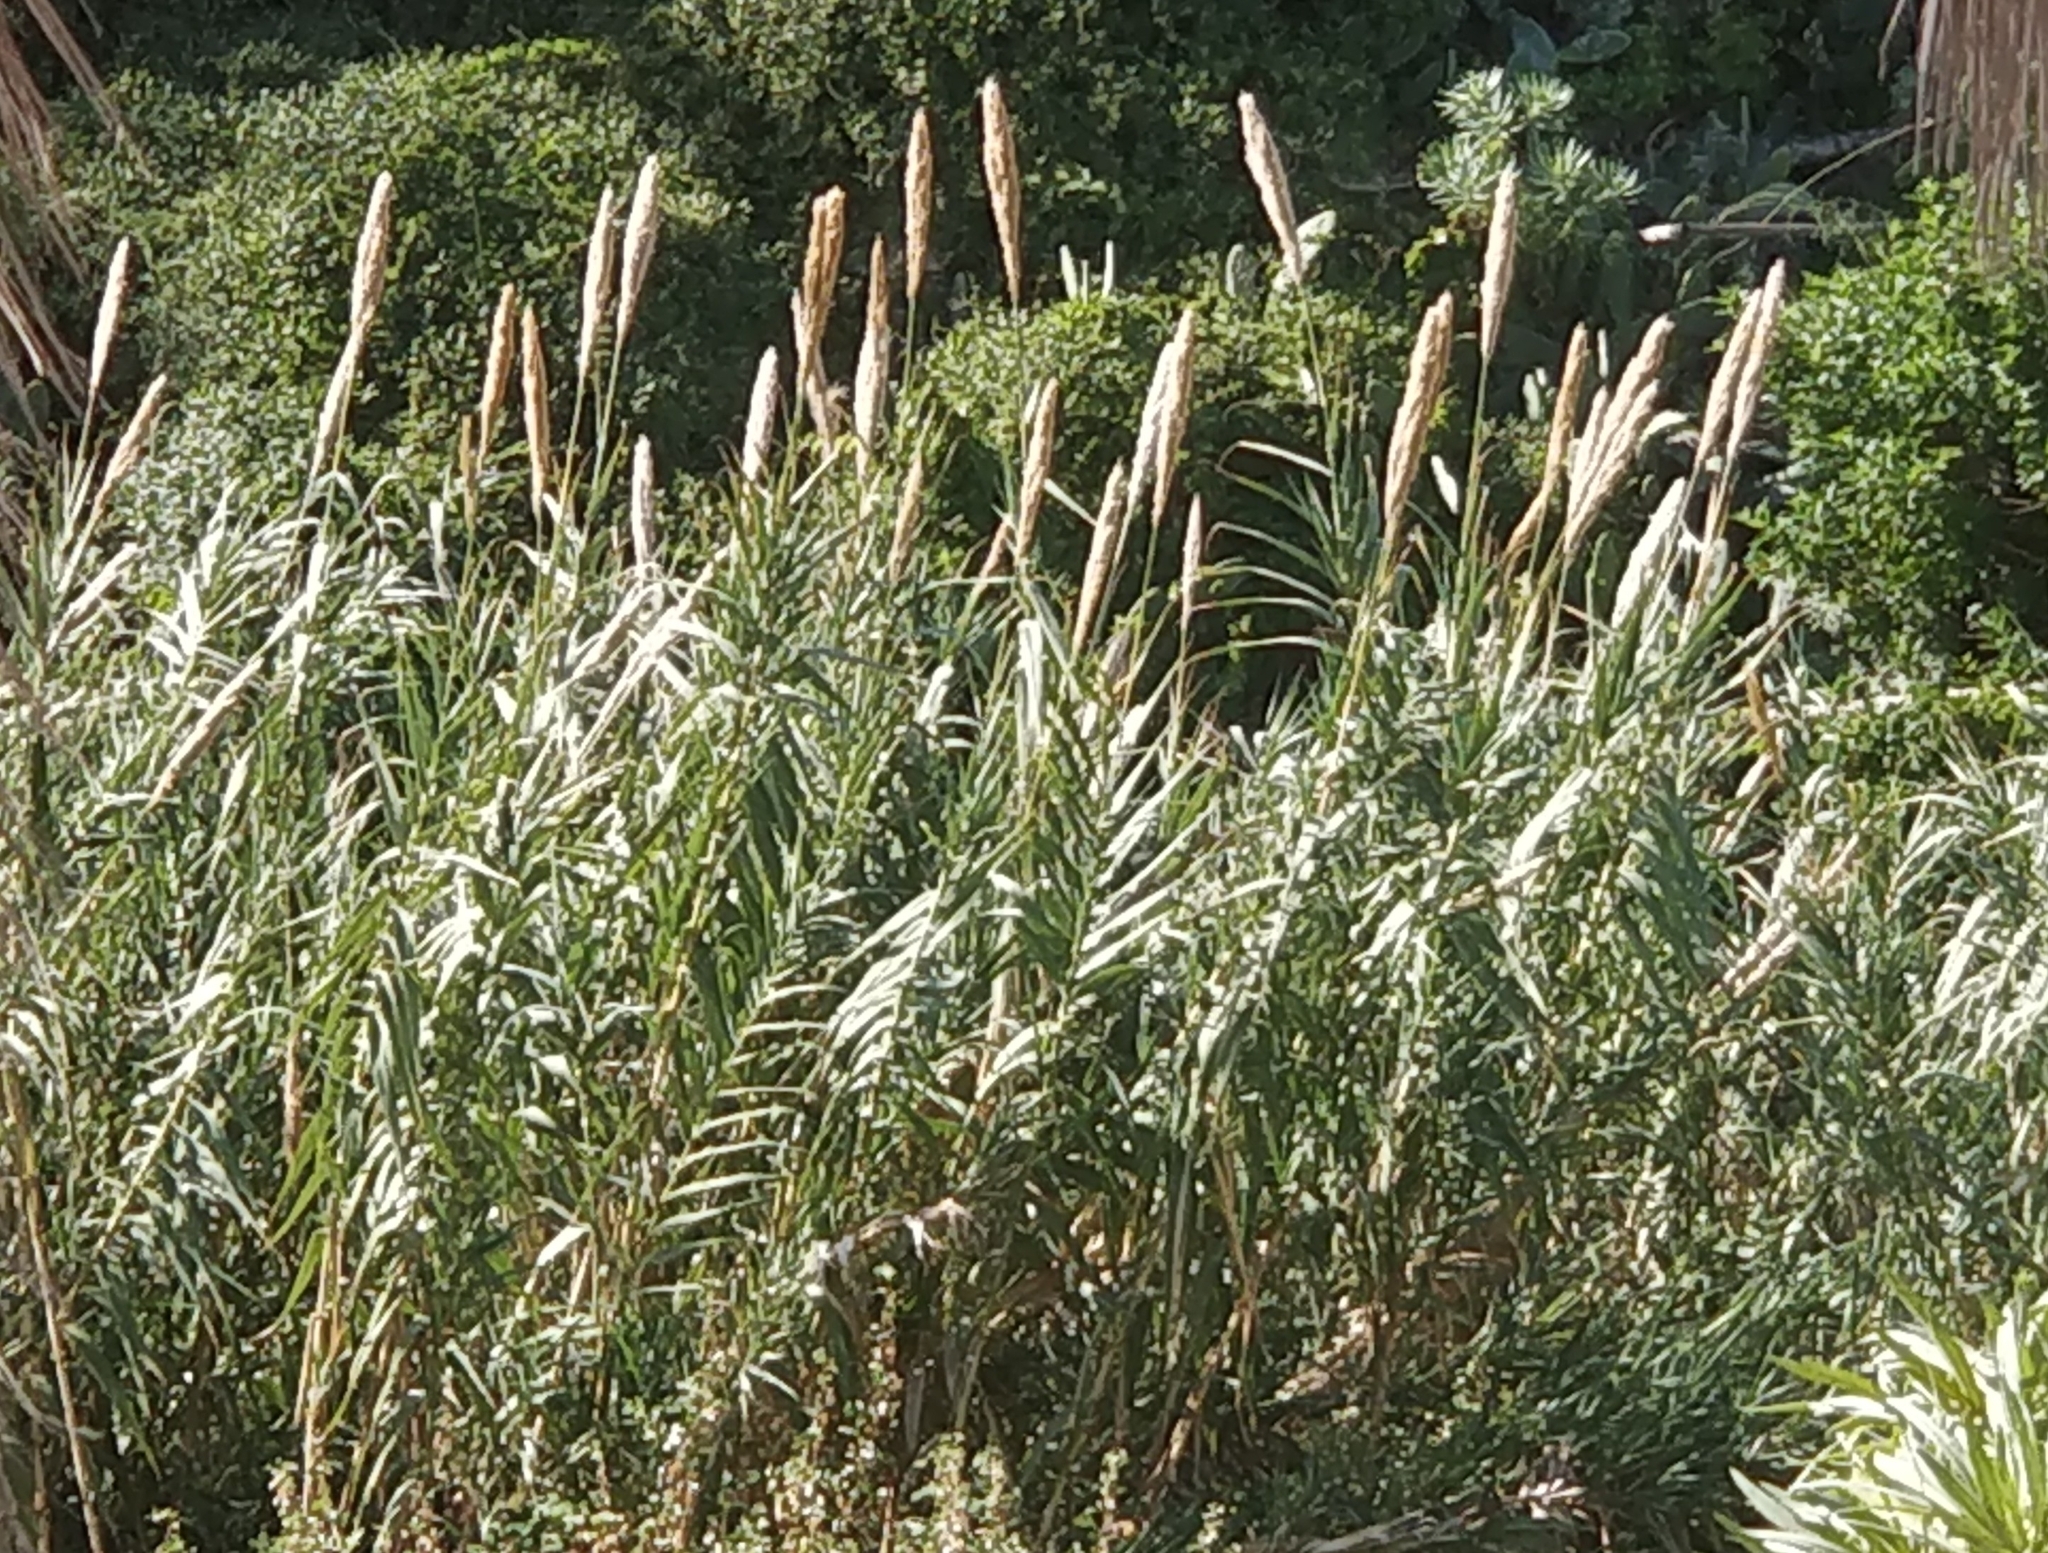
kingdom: Plantae
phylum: Tracheophyta
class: Liliopsida
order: Poales
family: Poaceae
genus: Arundo
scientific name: Arundo donax
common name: Giant reed
